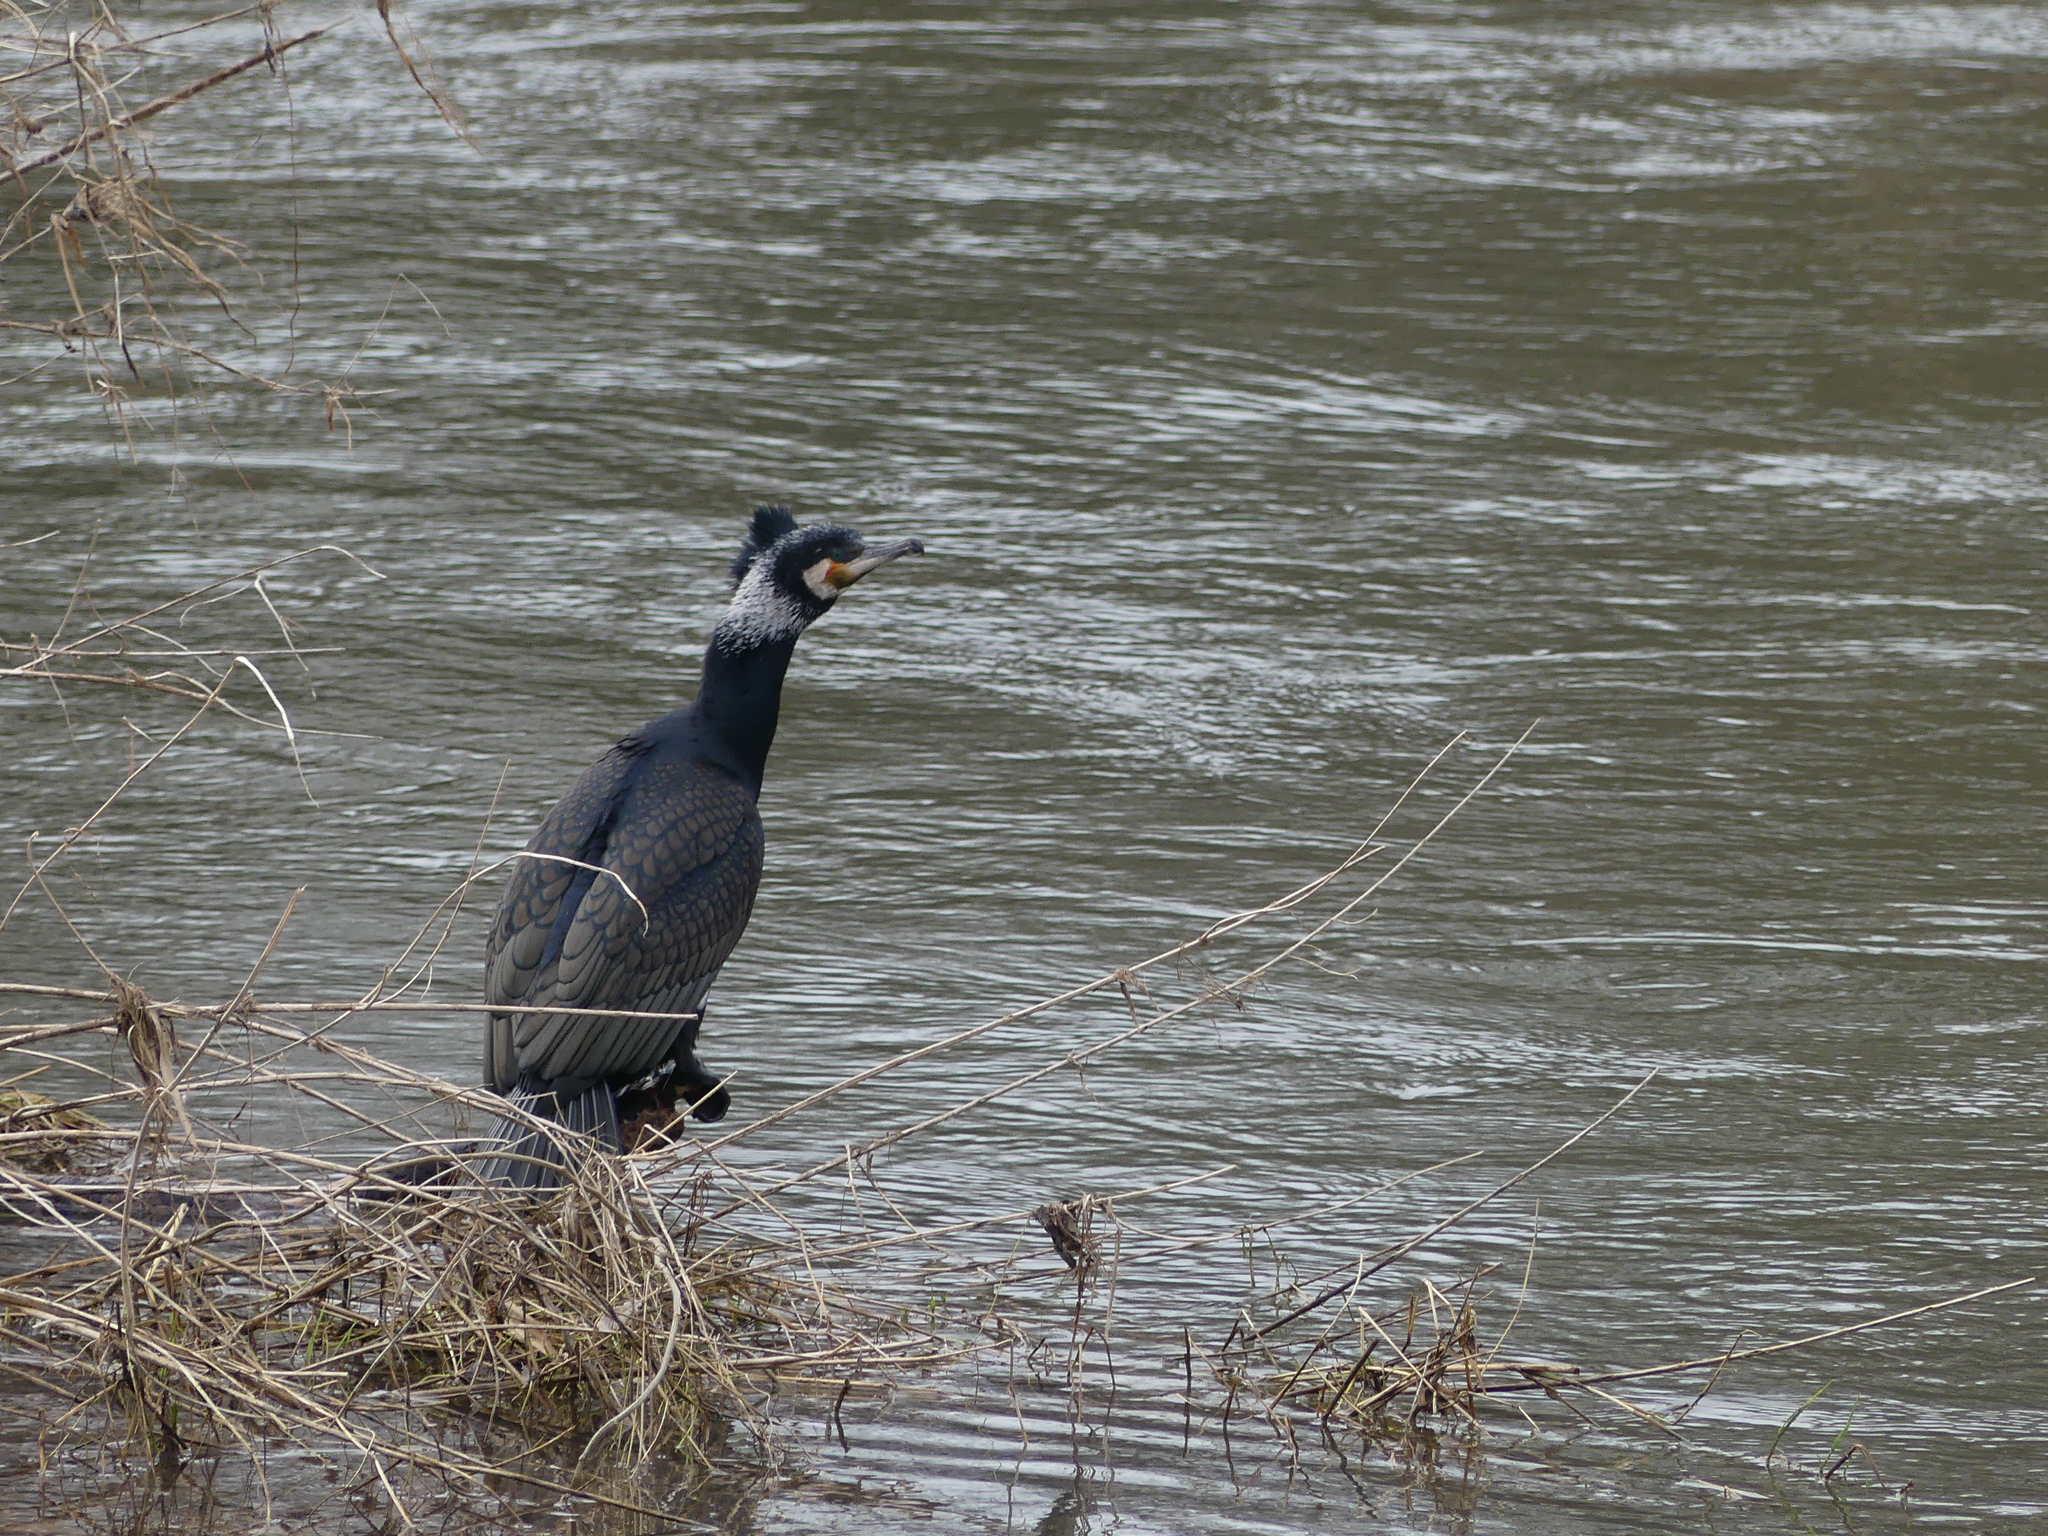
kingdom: Animalia
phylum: Chordata
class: Aves
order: Suliformes
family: Phalacrocoracidae
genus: Phalacrocorax
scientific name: Phalacrocorax carbo
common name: Great cormorant
